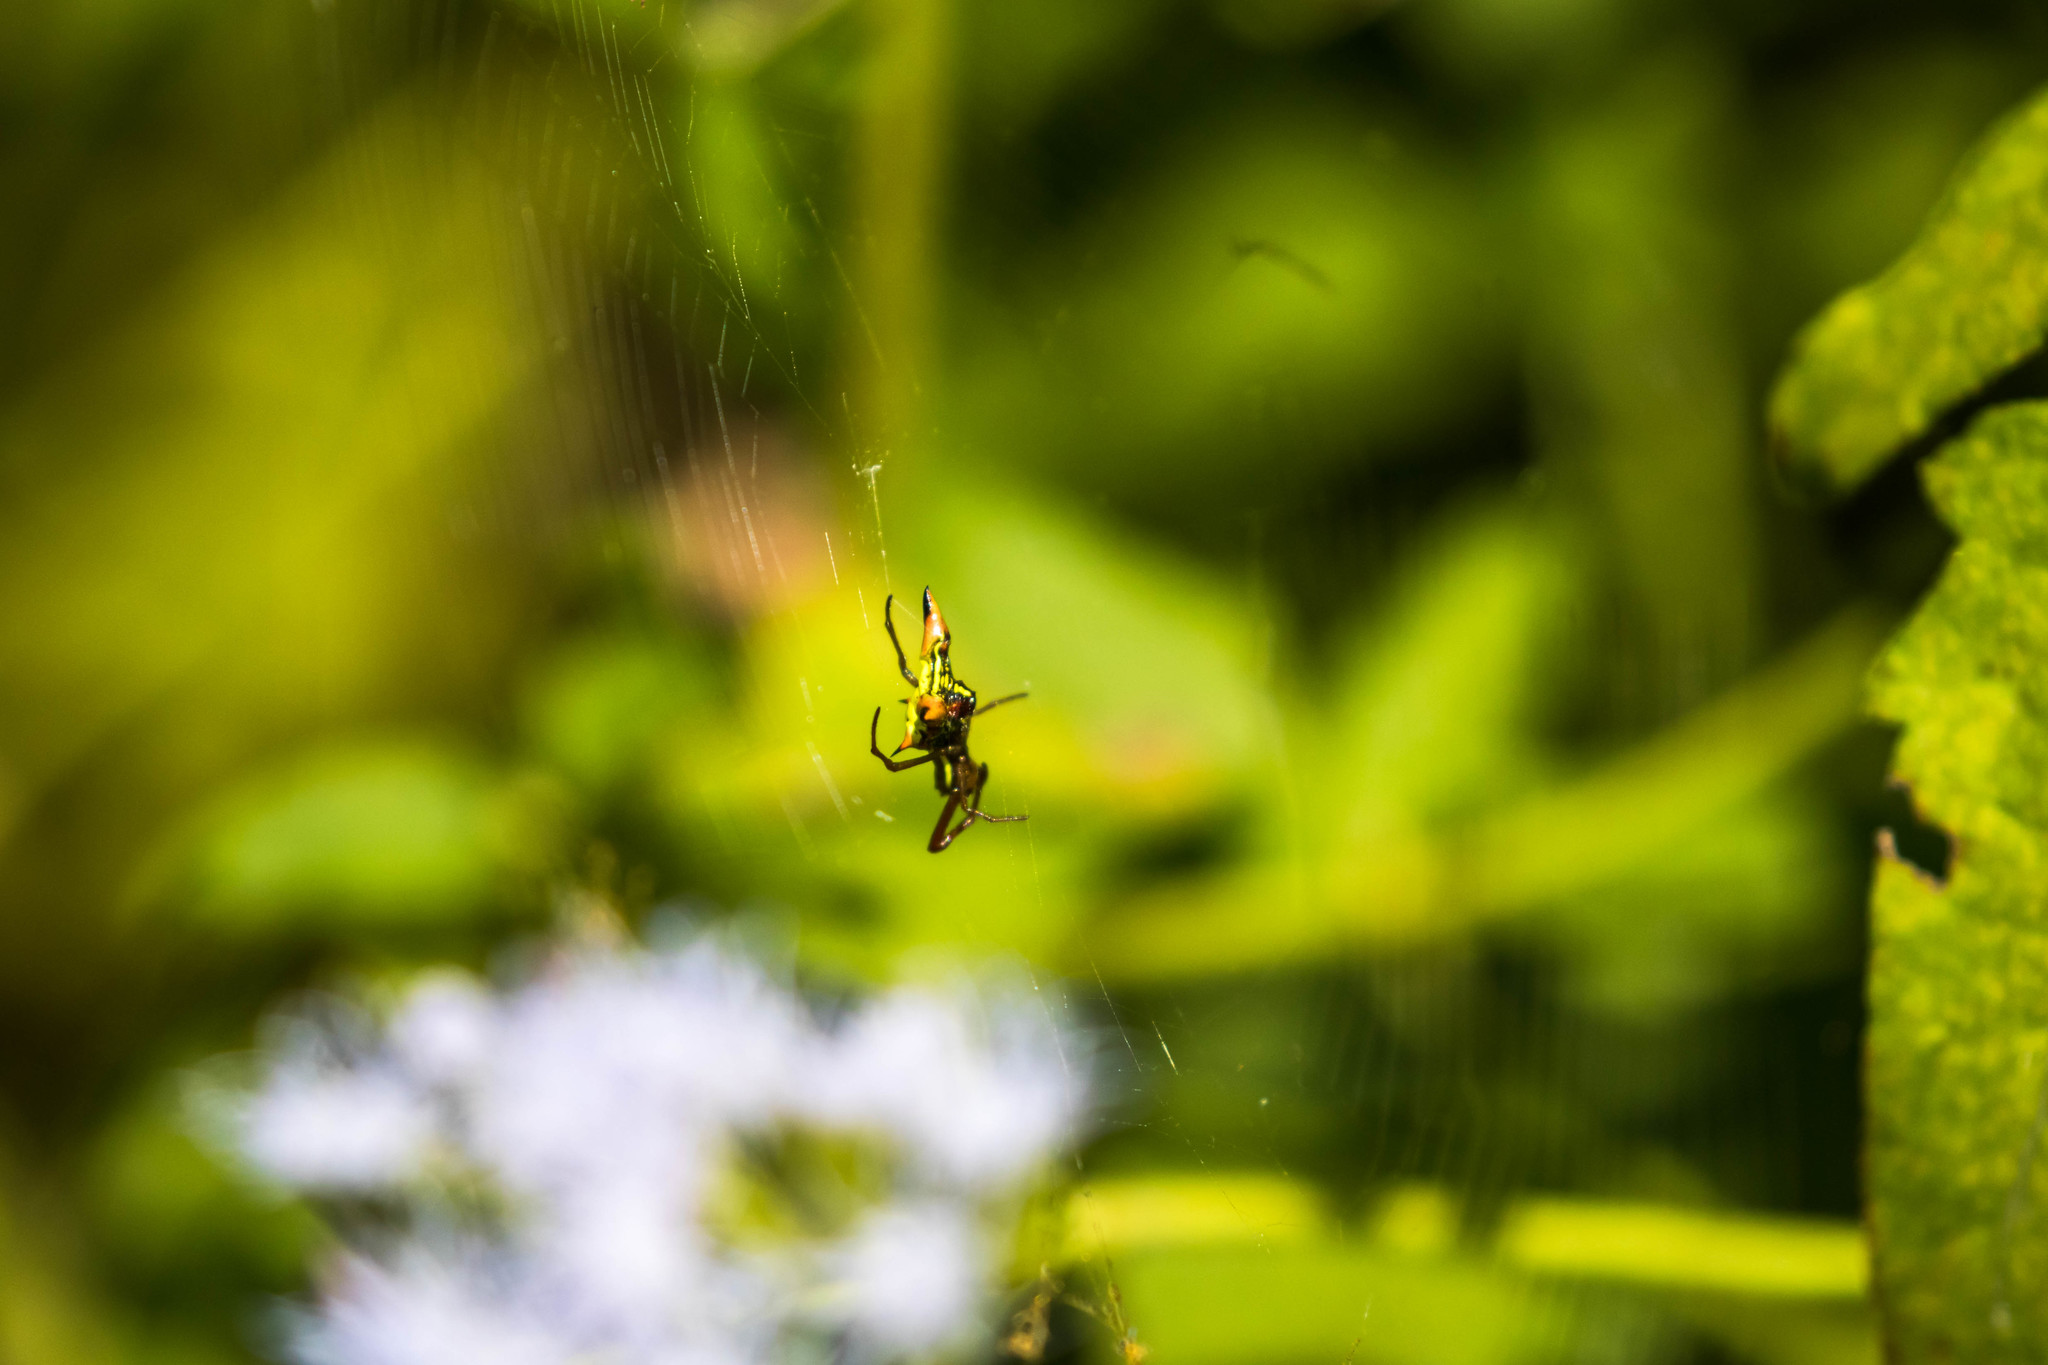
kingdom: Animalia
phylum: Arthropoda
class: Arachnida
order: Araneae
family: Araneidae
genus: Micrathena
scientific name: Micrathena sagittata
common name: Orb weavers
